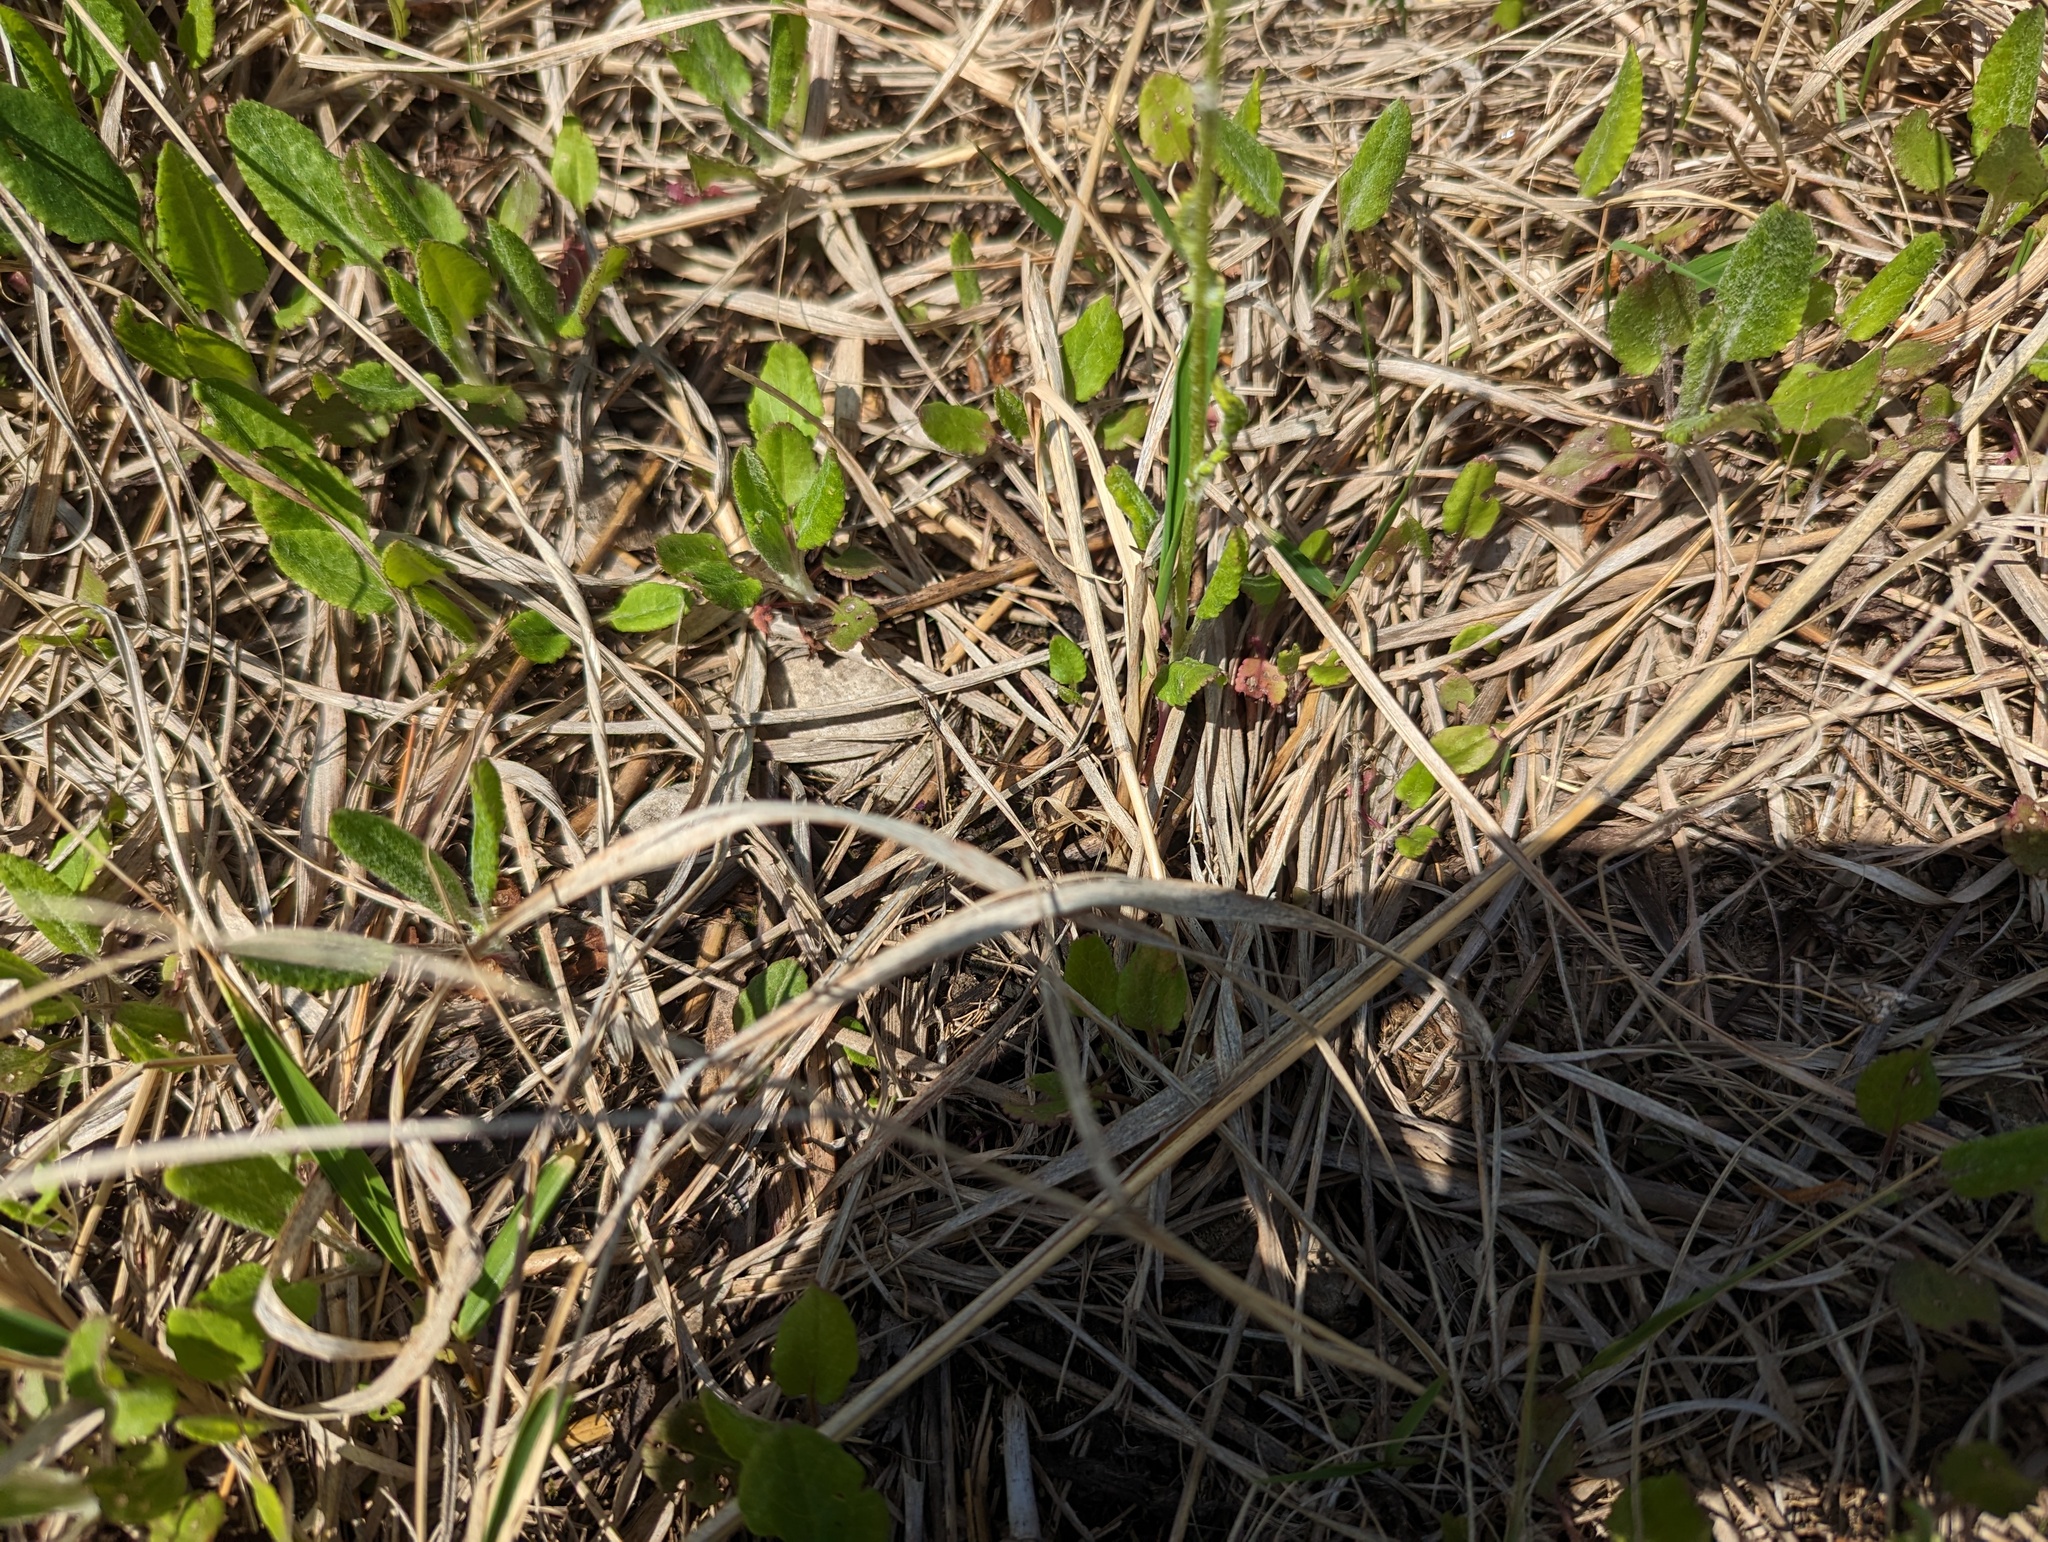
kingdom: Plantae
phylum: Tracheophyta
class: Magnoliopsida
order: Asterales
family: Asteraceae
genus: Packera
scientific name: Packera paupercula
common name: Balsam groundsel
